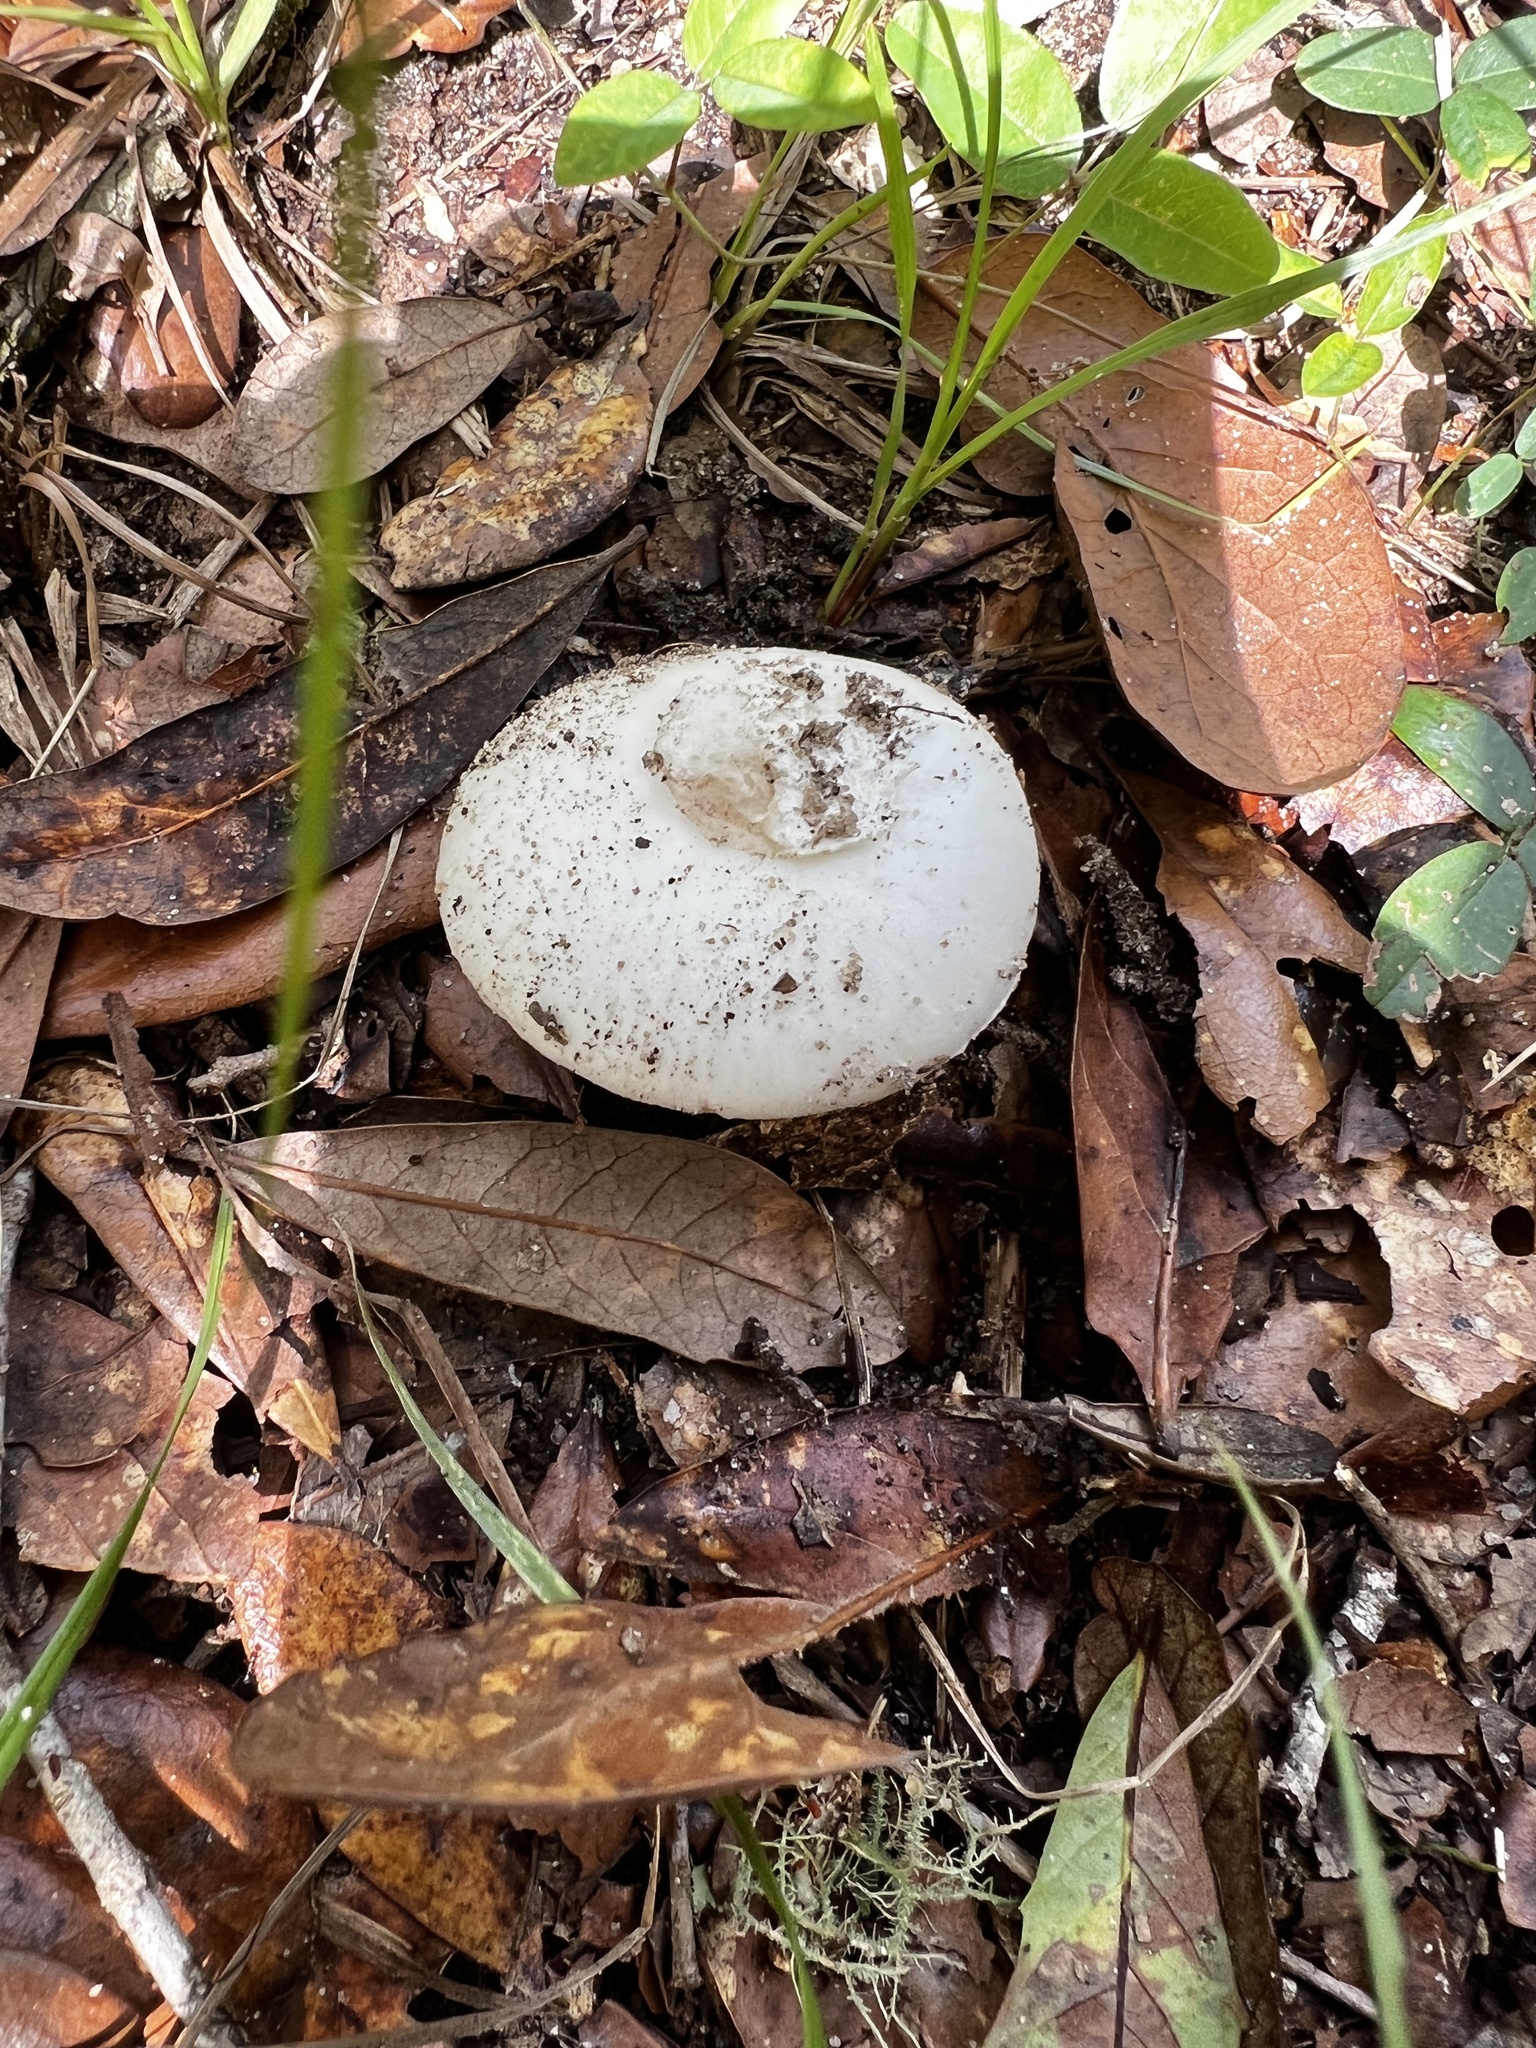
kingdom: Fungi
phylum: Basidiomycota
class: Agaricomycetes
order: Agaricales
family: Amanitaceae
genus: Amanita
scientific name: Amanita aestivalis
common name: White american star-footed amanita
